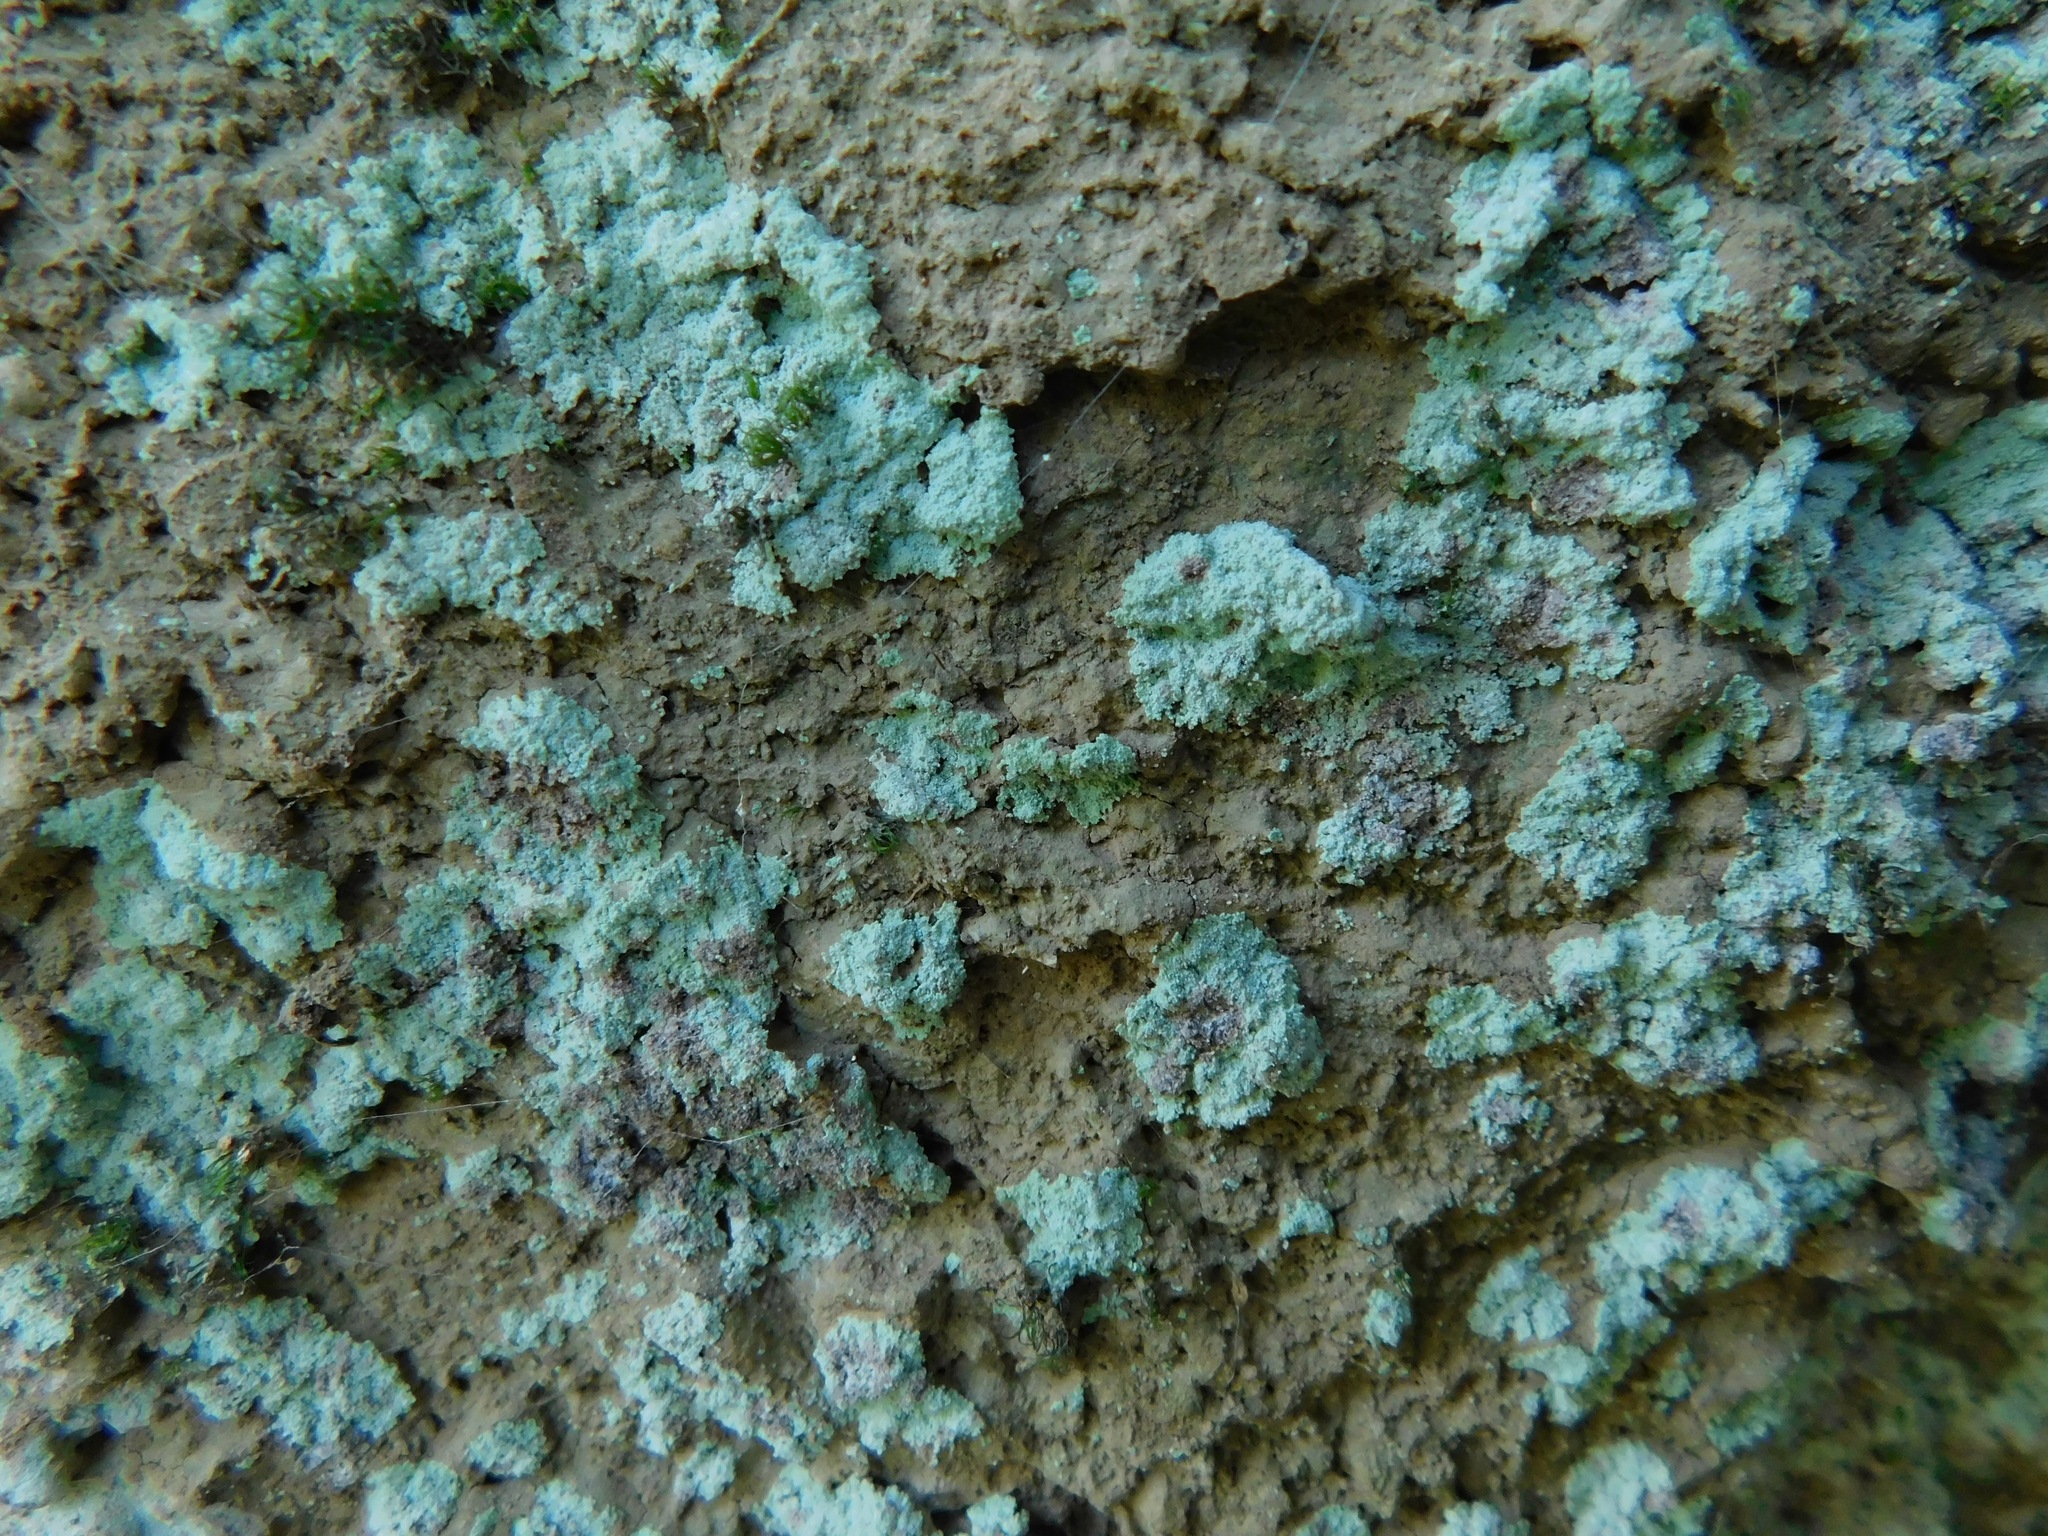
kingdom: Fungi
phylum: Ascomycota
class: Lecanoromycetes
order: Lecanorales
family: Stereocaulaceae
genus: Lepraria
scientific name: Lepraria lobificans
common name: Fluffy dust lichen
